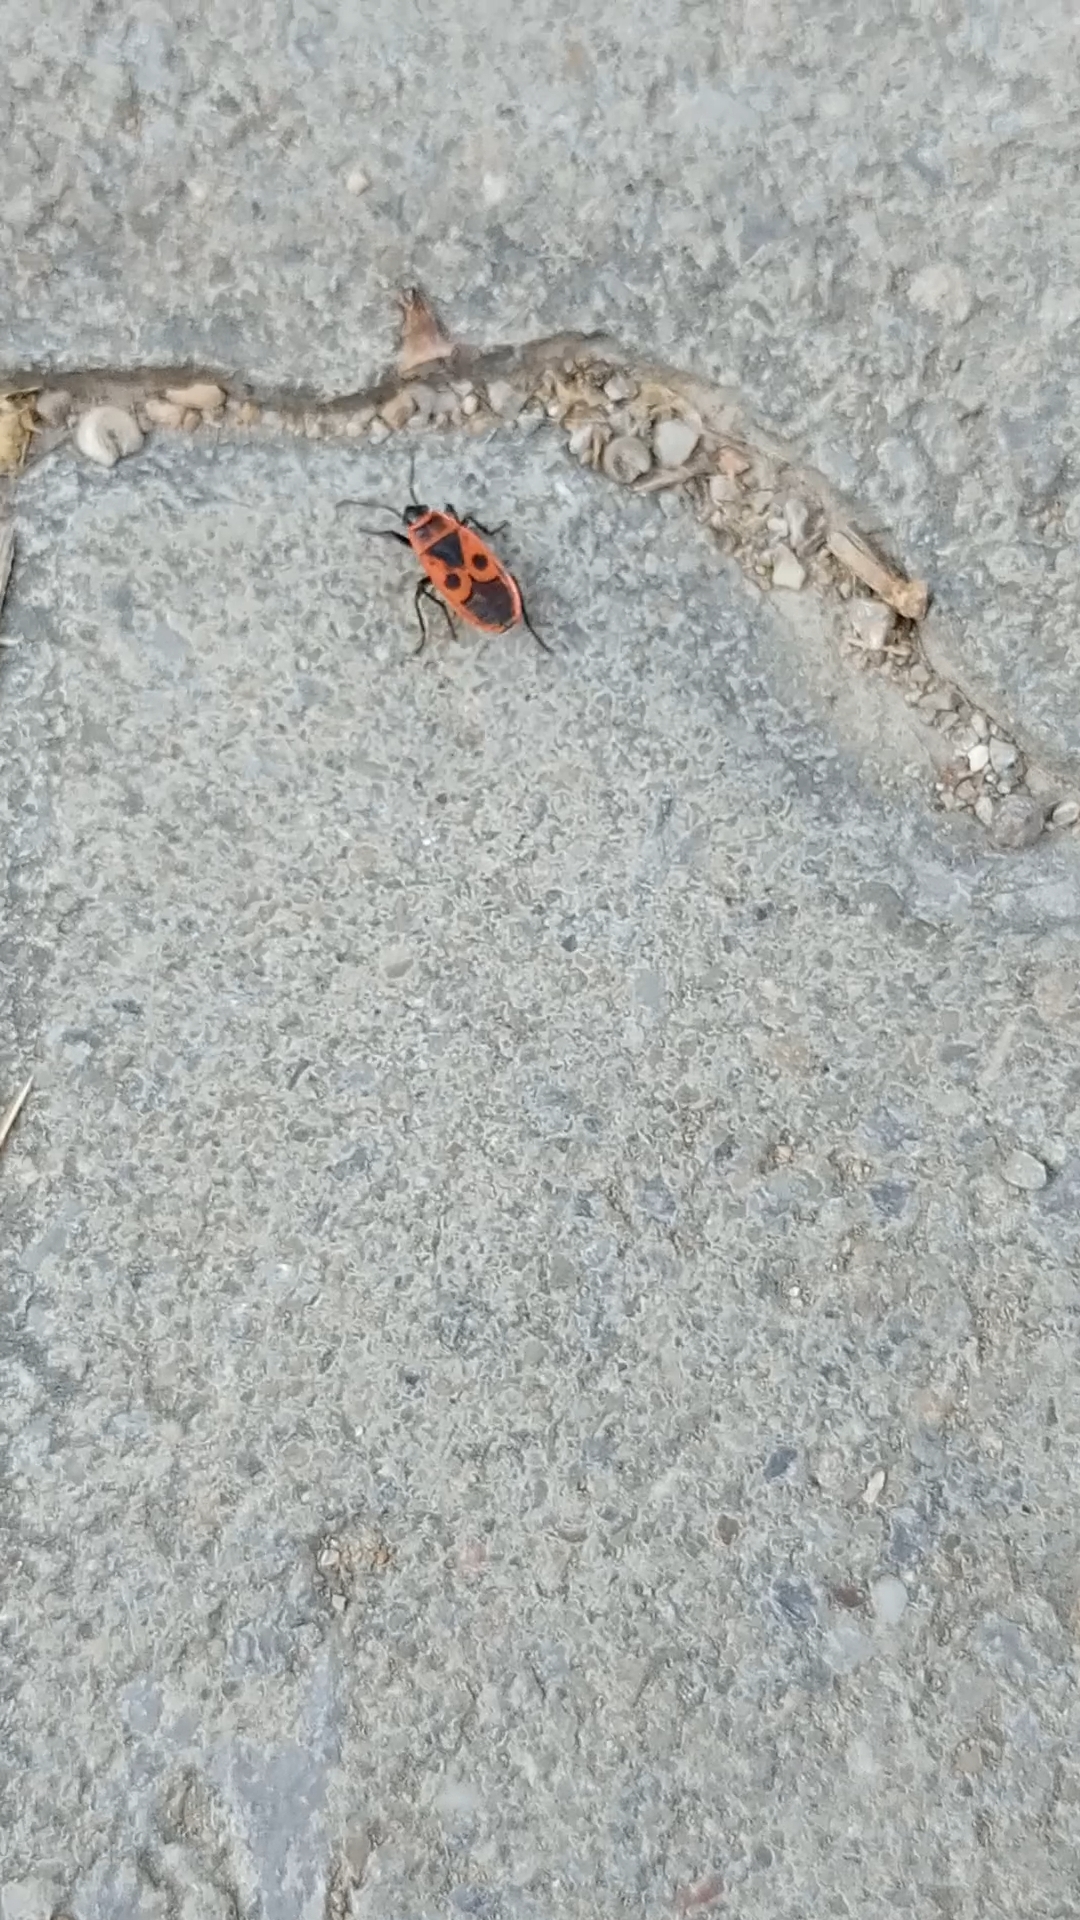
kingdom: Animalia
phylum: Arthropoda
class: Insecta
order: Hemiptera
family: Pyrrhocoridae
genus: Pyrrhocoris
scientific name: Pyrrhocoris apterus
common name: Firebug
